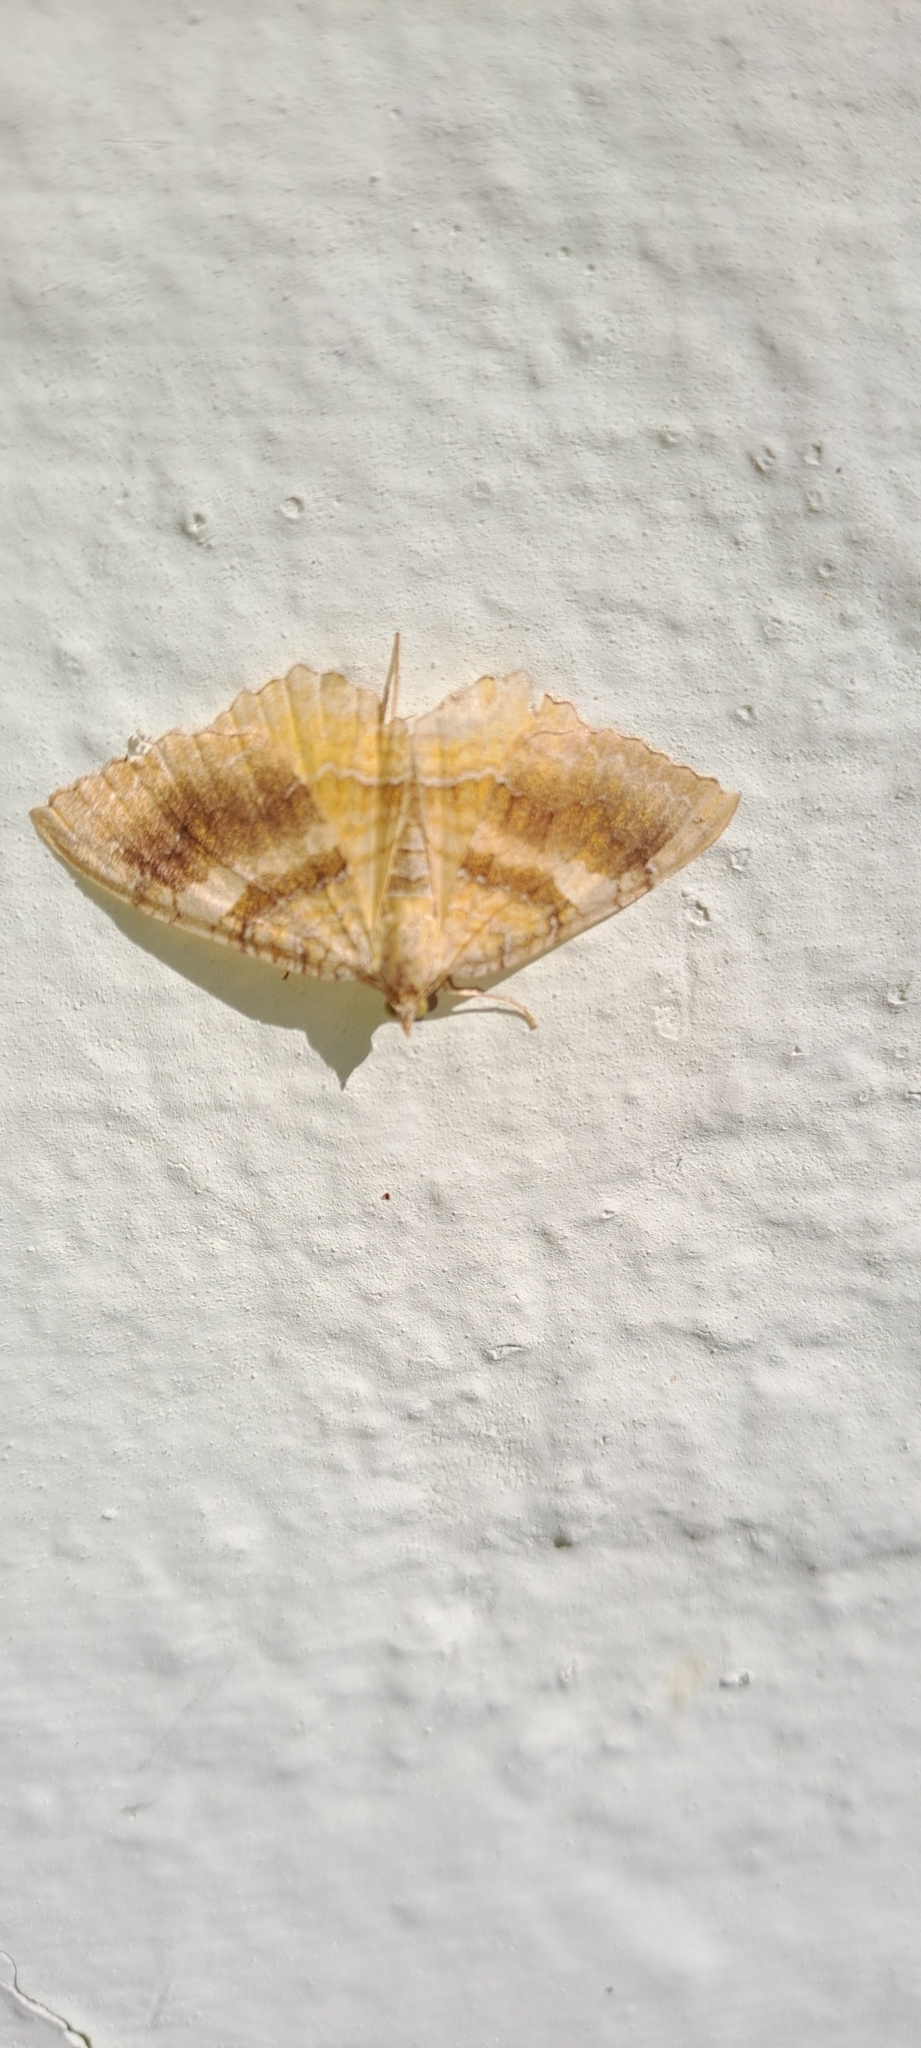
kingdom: Animalia
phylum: Arthropoda
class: Insecta
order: Lepidoptera
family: Geometridae
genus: Camptogramma
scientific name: Camptogramma bilineata
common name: Yellow shell
